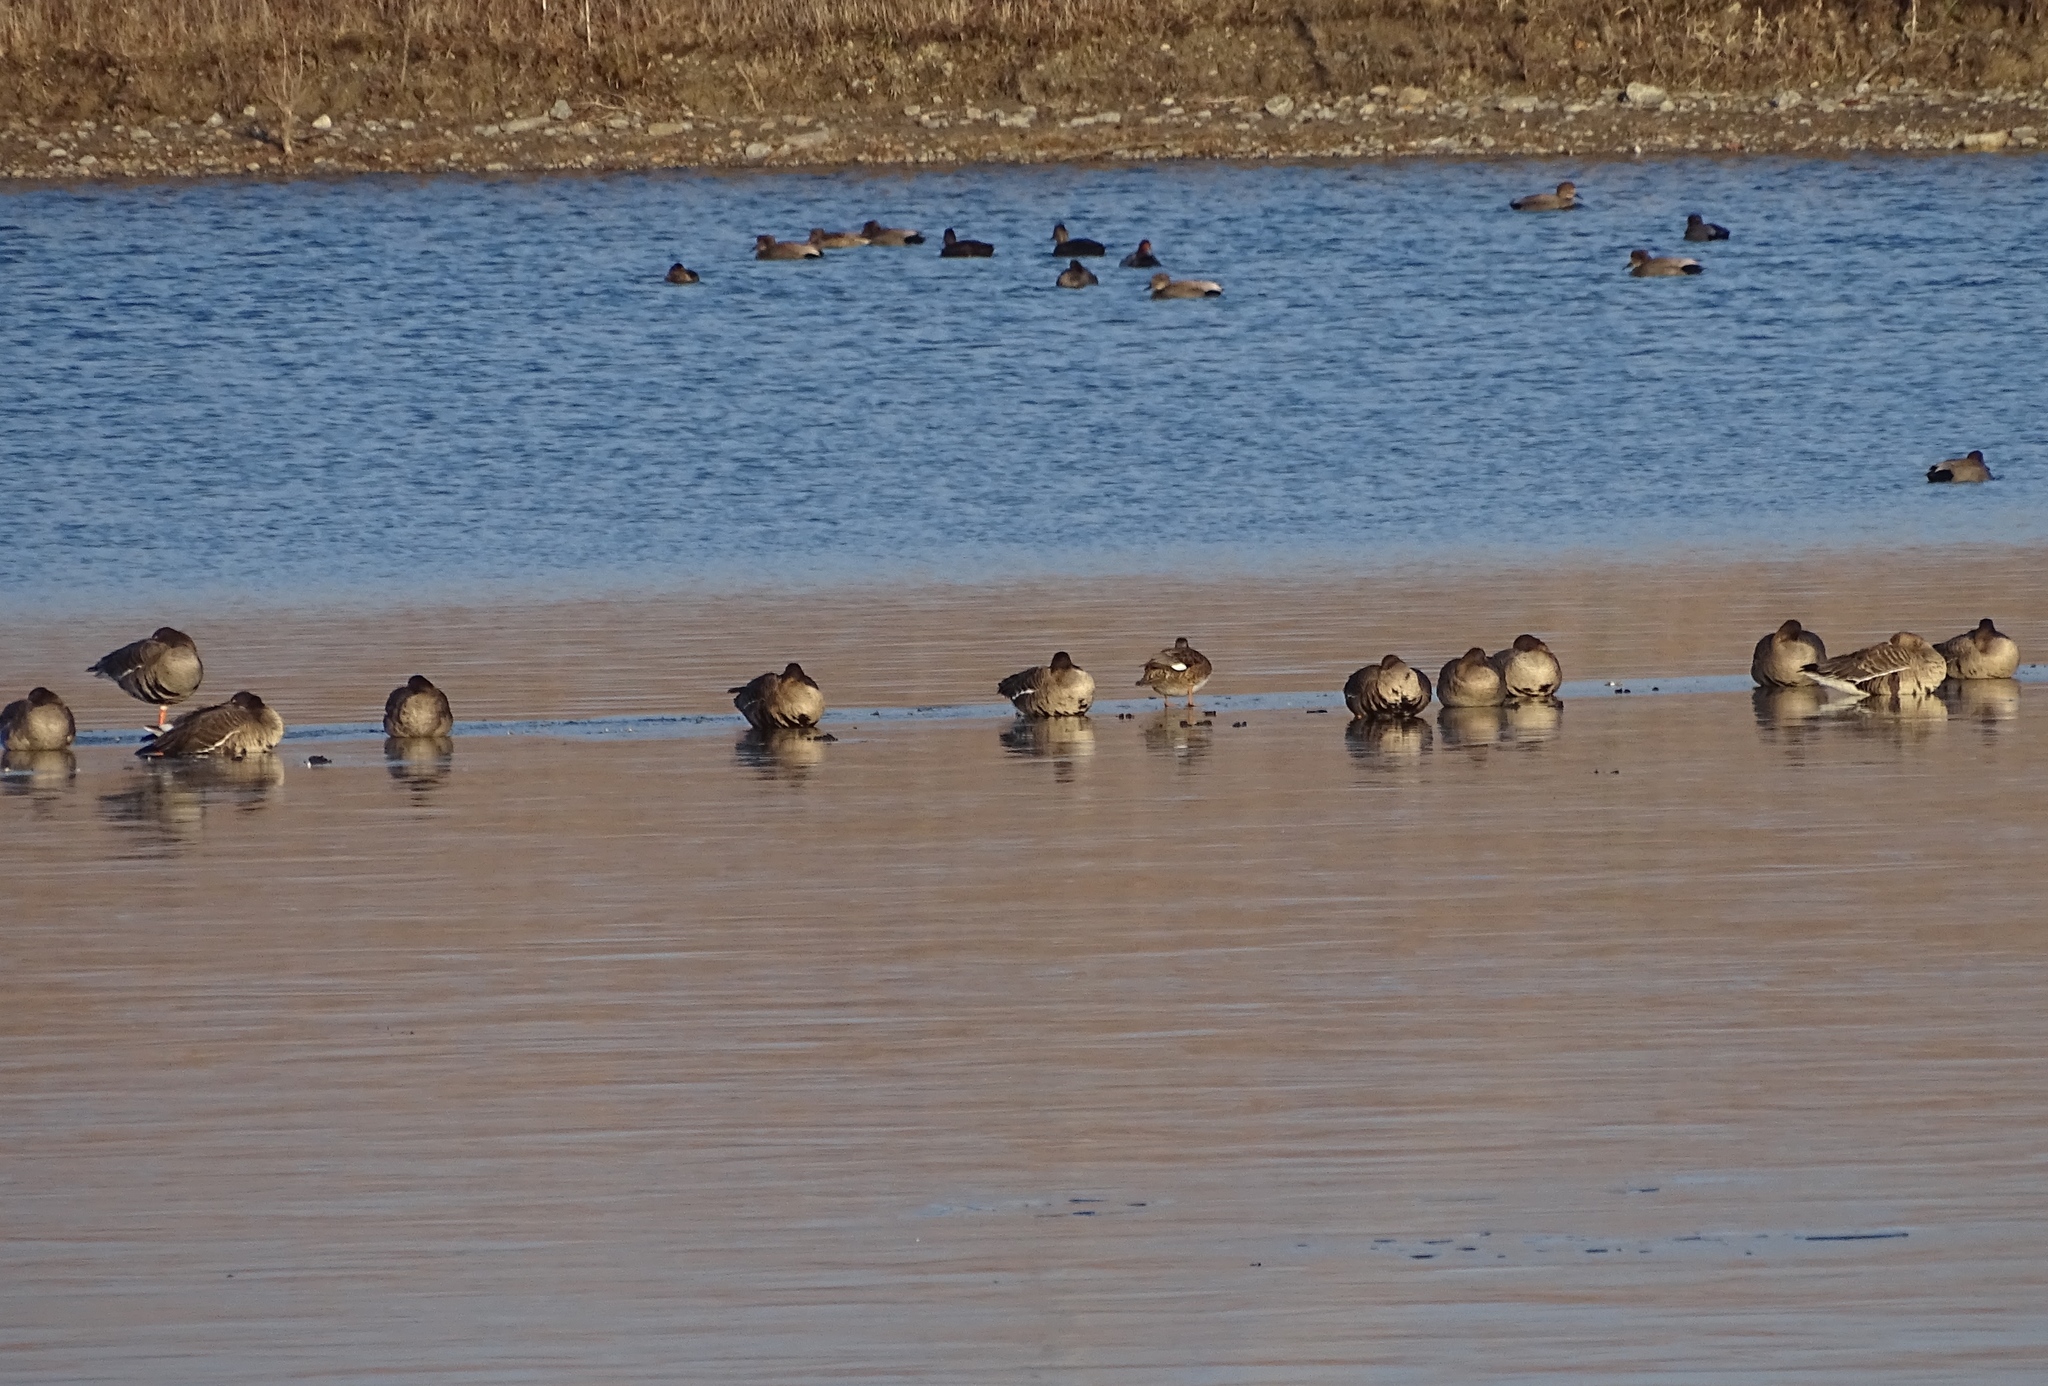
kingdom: Animalia
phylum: Chordata
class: Aves
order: Anseriformes
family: Anatidae
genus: Anser
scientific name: Anser albifrons
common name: Greater white-fronted goose
